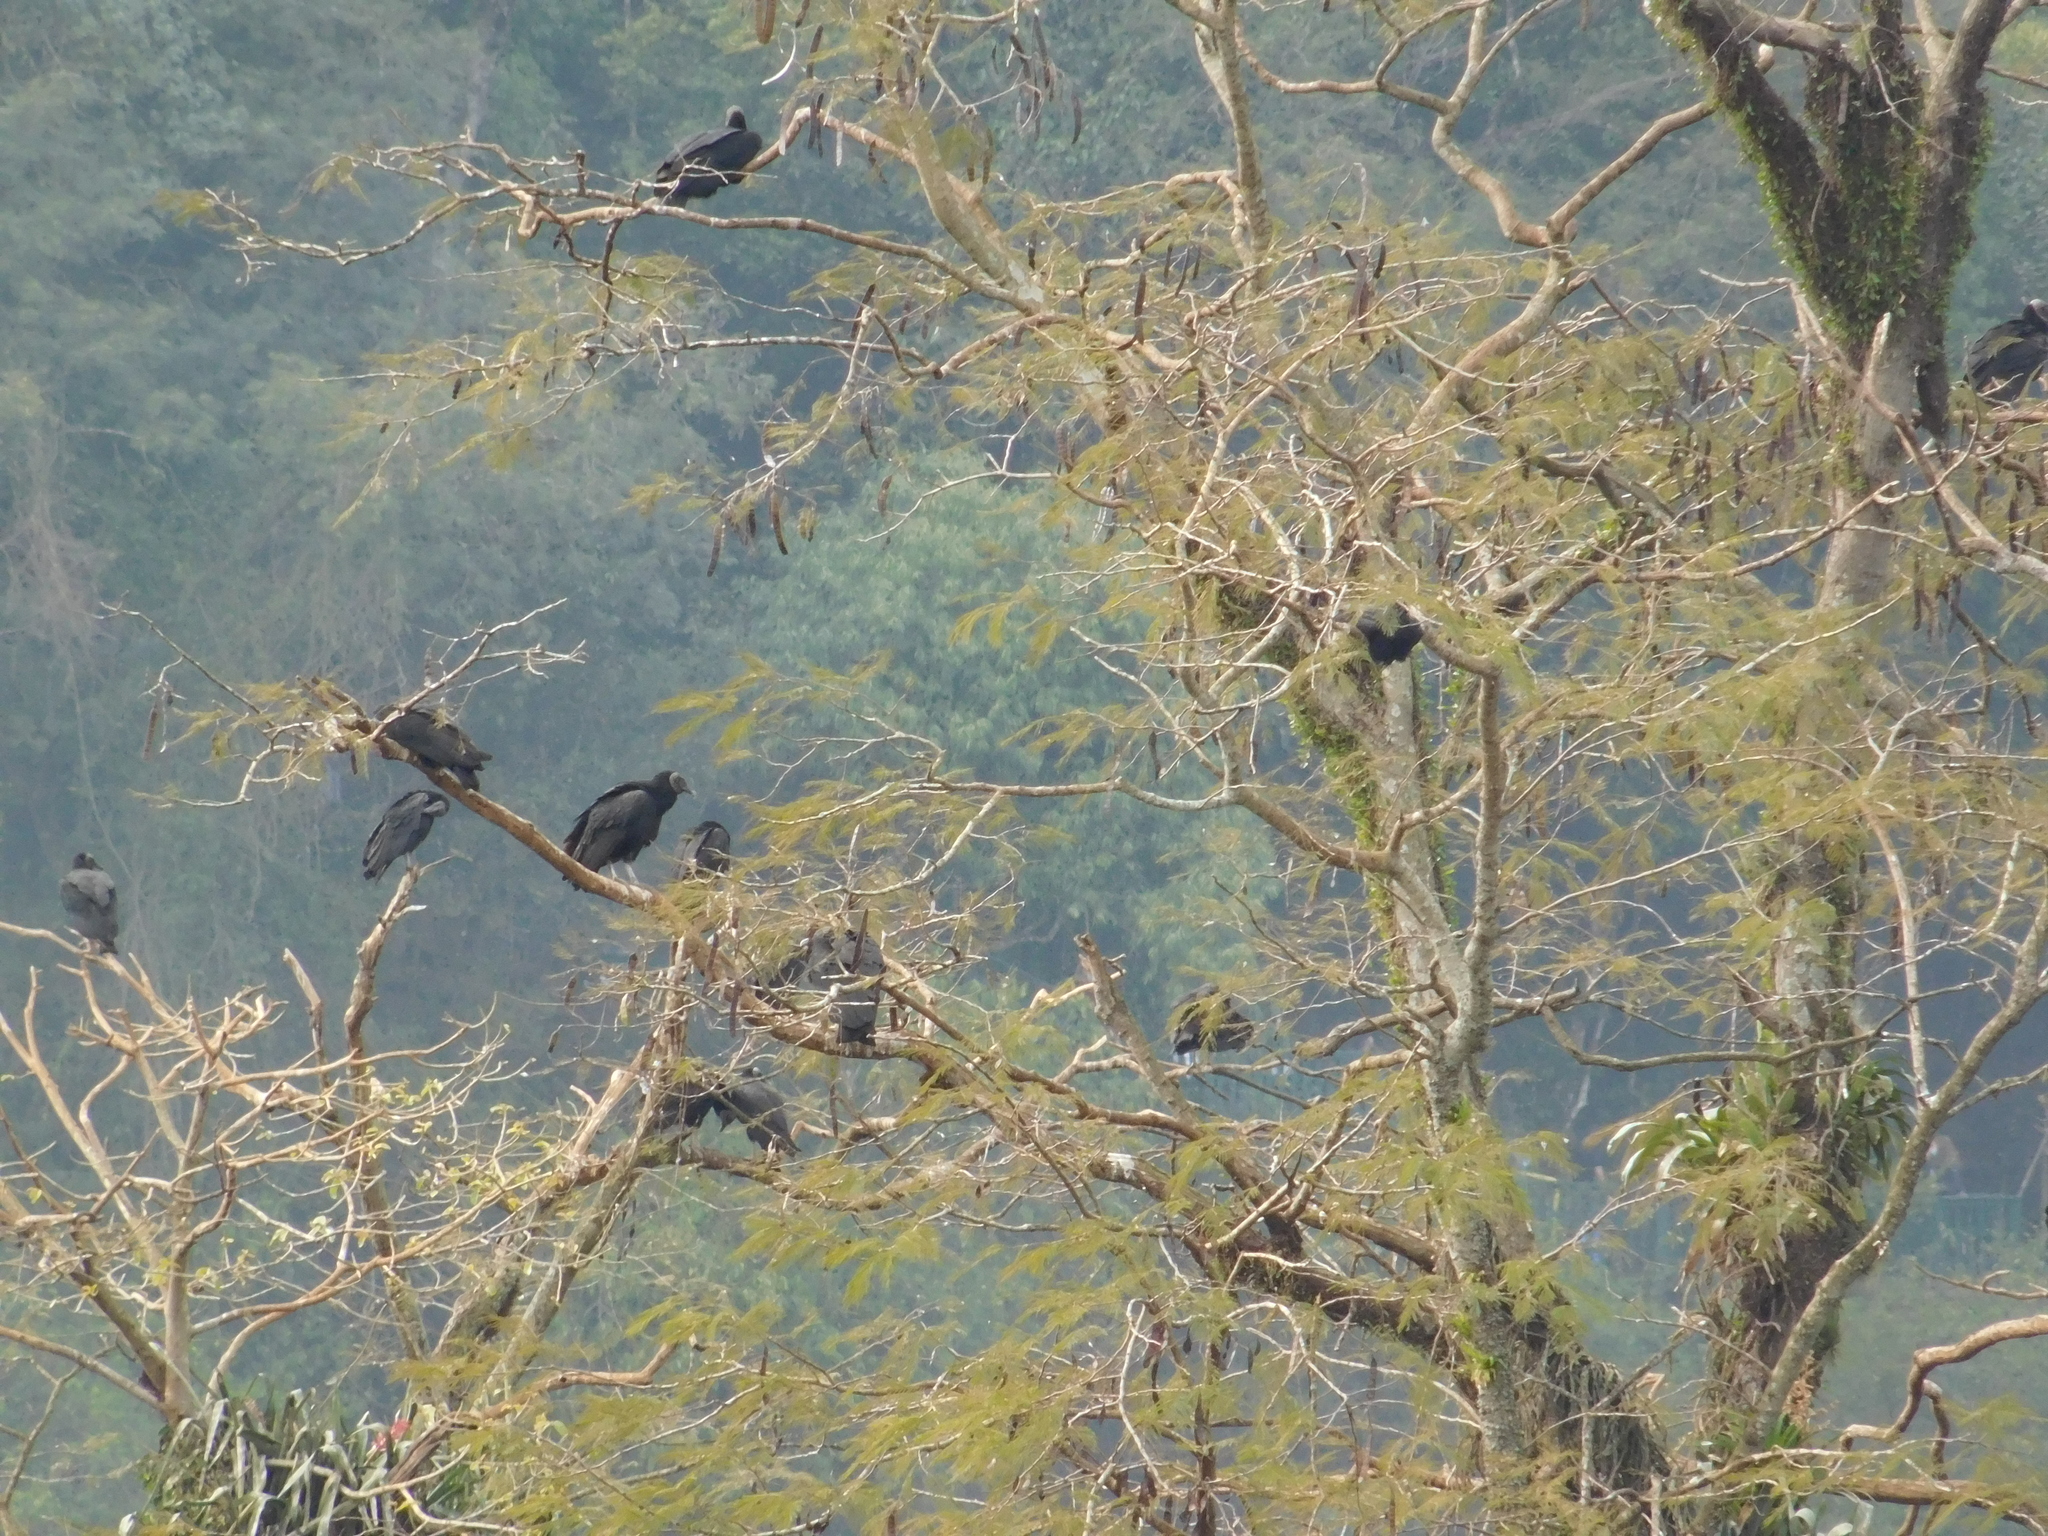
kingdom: Animalia
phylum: Chordata
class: Aves
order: Accipitriformes
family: Cathartidae
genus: Coragyps
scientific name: Coragyps atratus
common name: Black vulture
